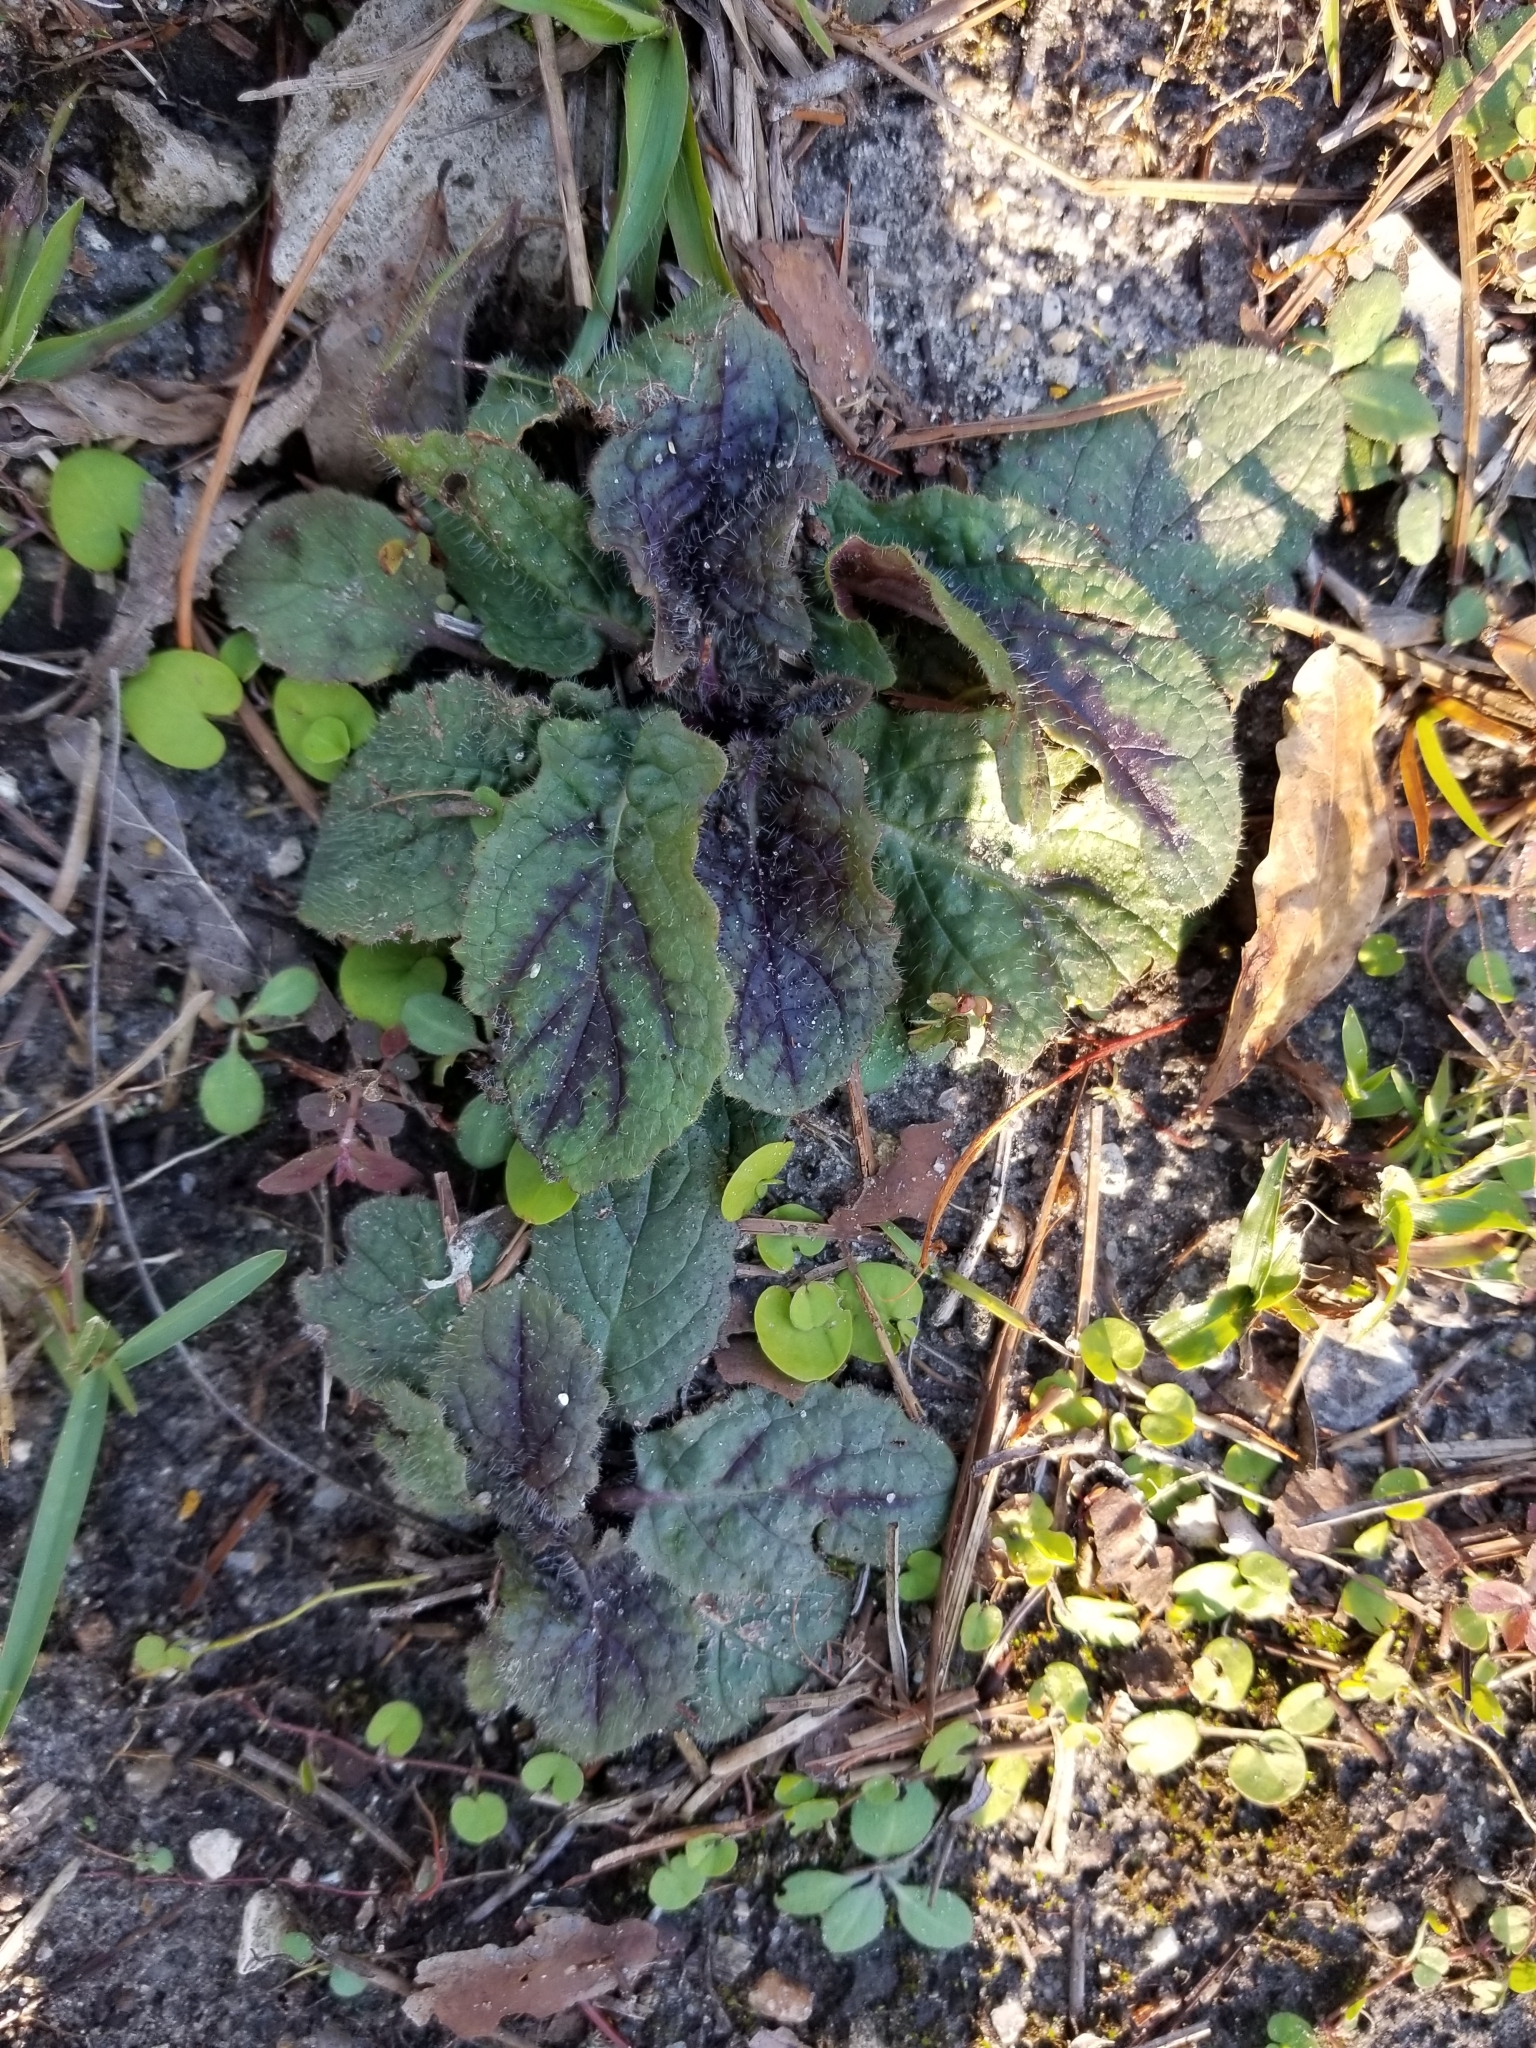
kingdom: Plantae
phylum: Tracheophyta
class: Magnoliopsida
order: Lamiales
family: Lamiaceae
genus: Salvia
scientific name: Salvia lyrata
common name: Cancerweed
